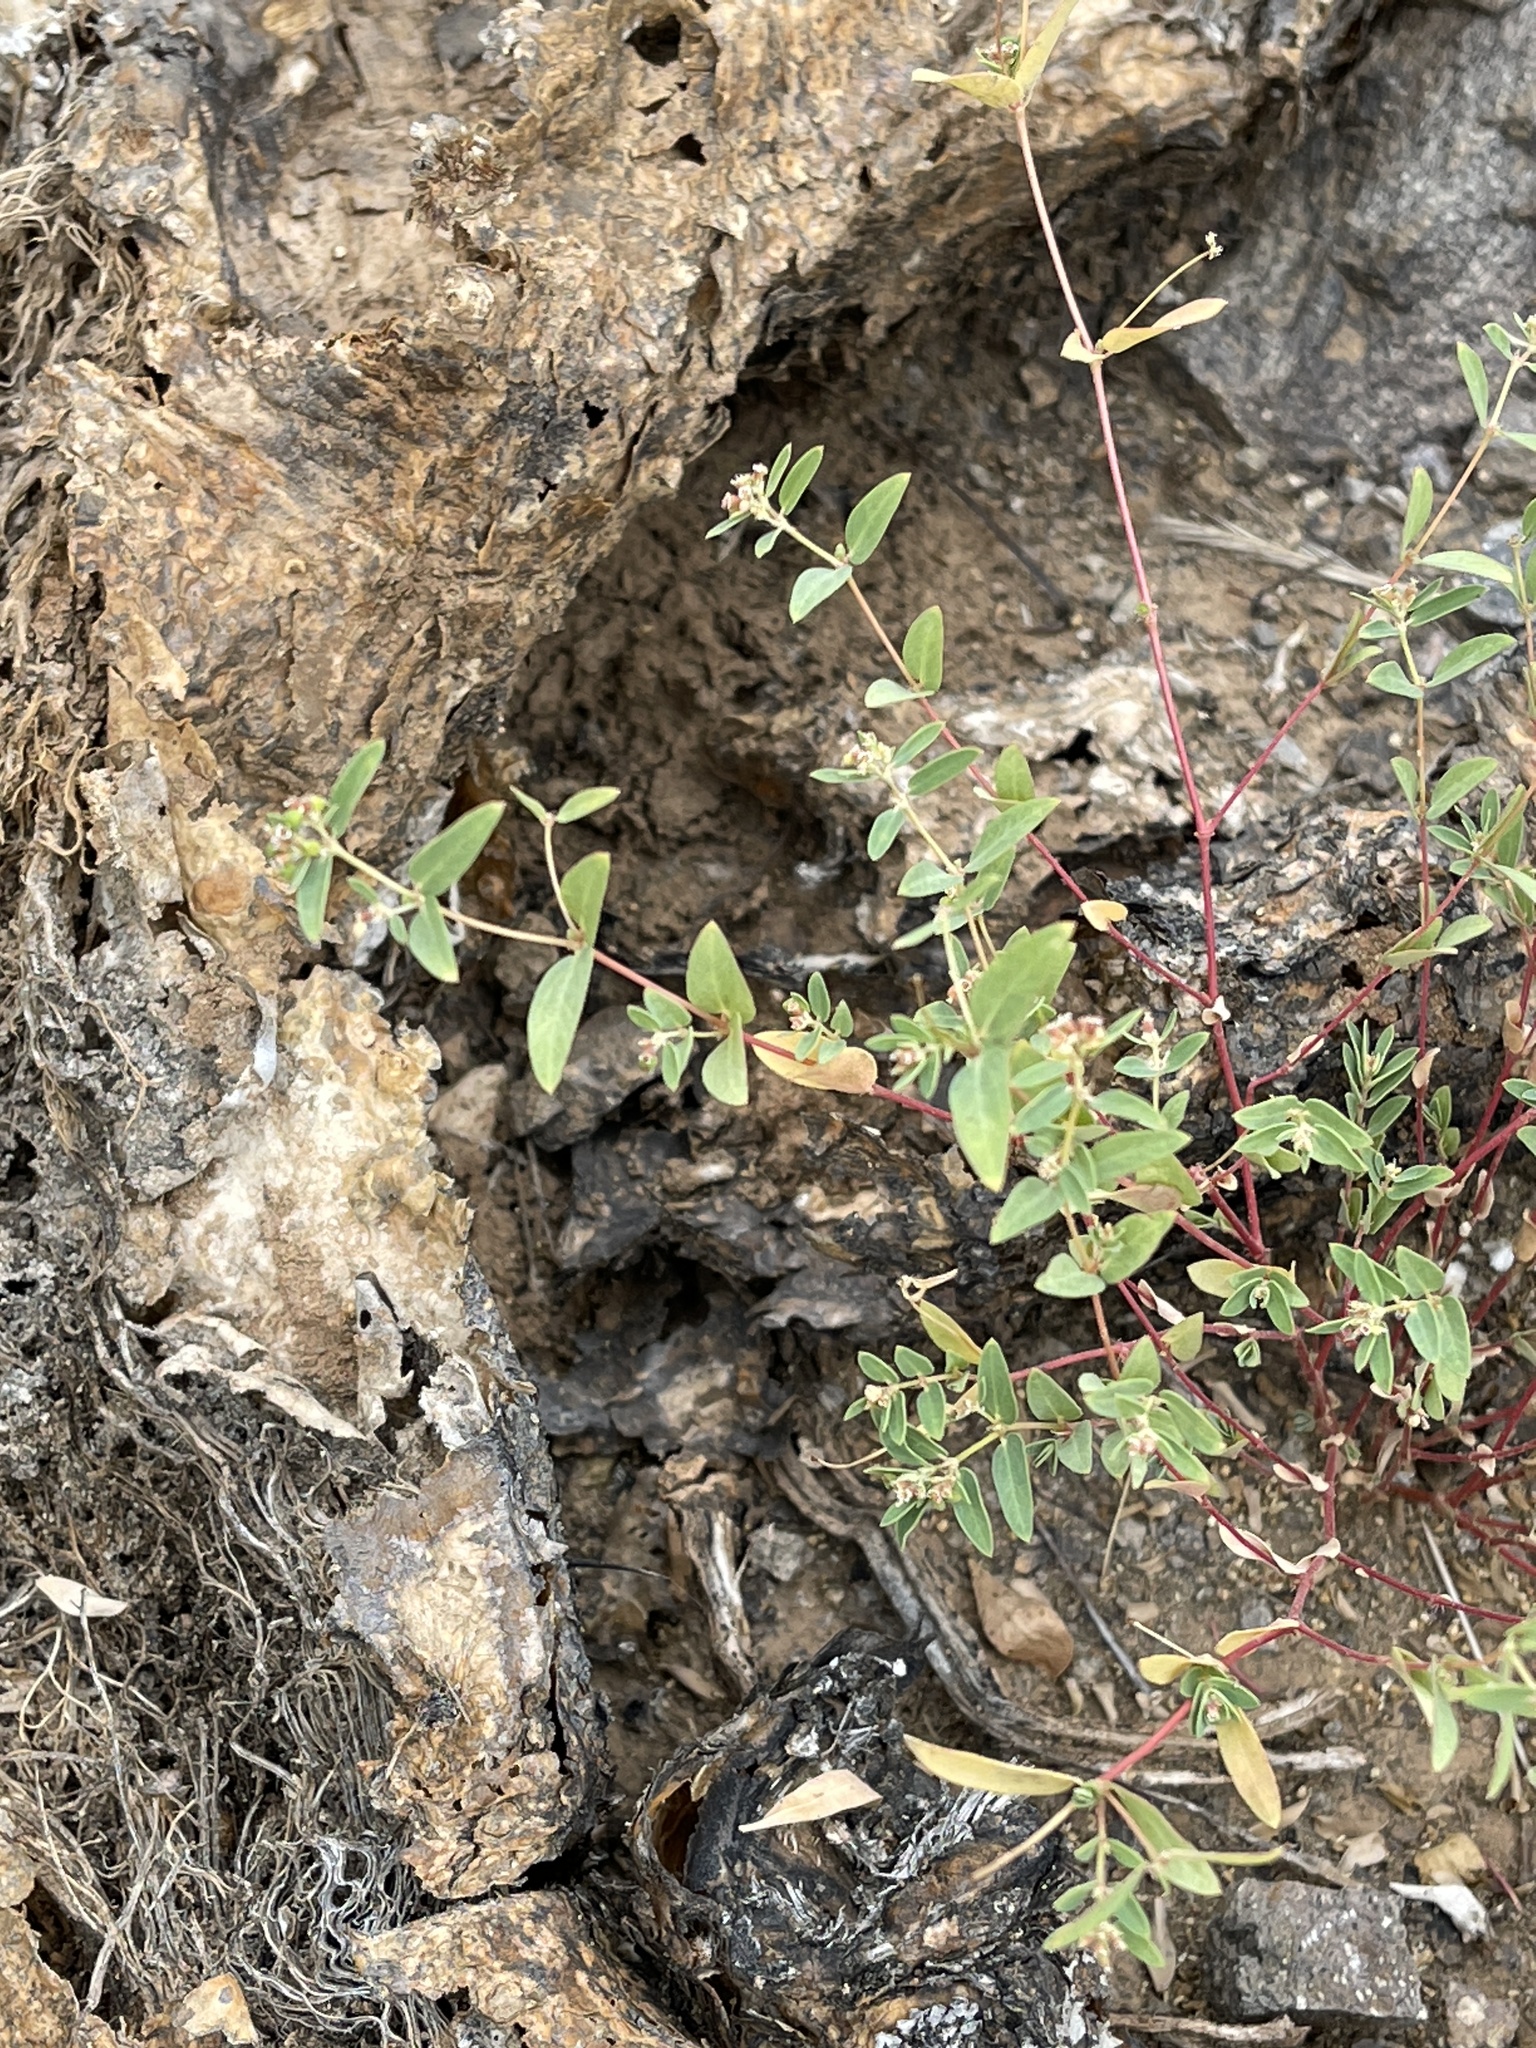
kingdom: Plantae
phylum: Tracheophyta
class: Magnoliopsida
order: Malpighiales
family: Euphorbiaceae
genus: Euphorbia
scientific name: Euphorbia capitellata
